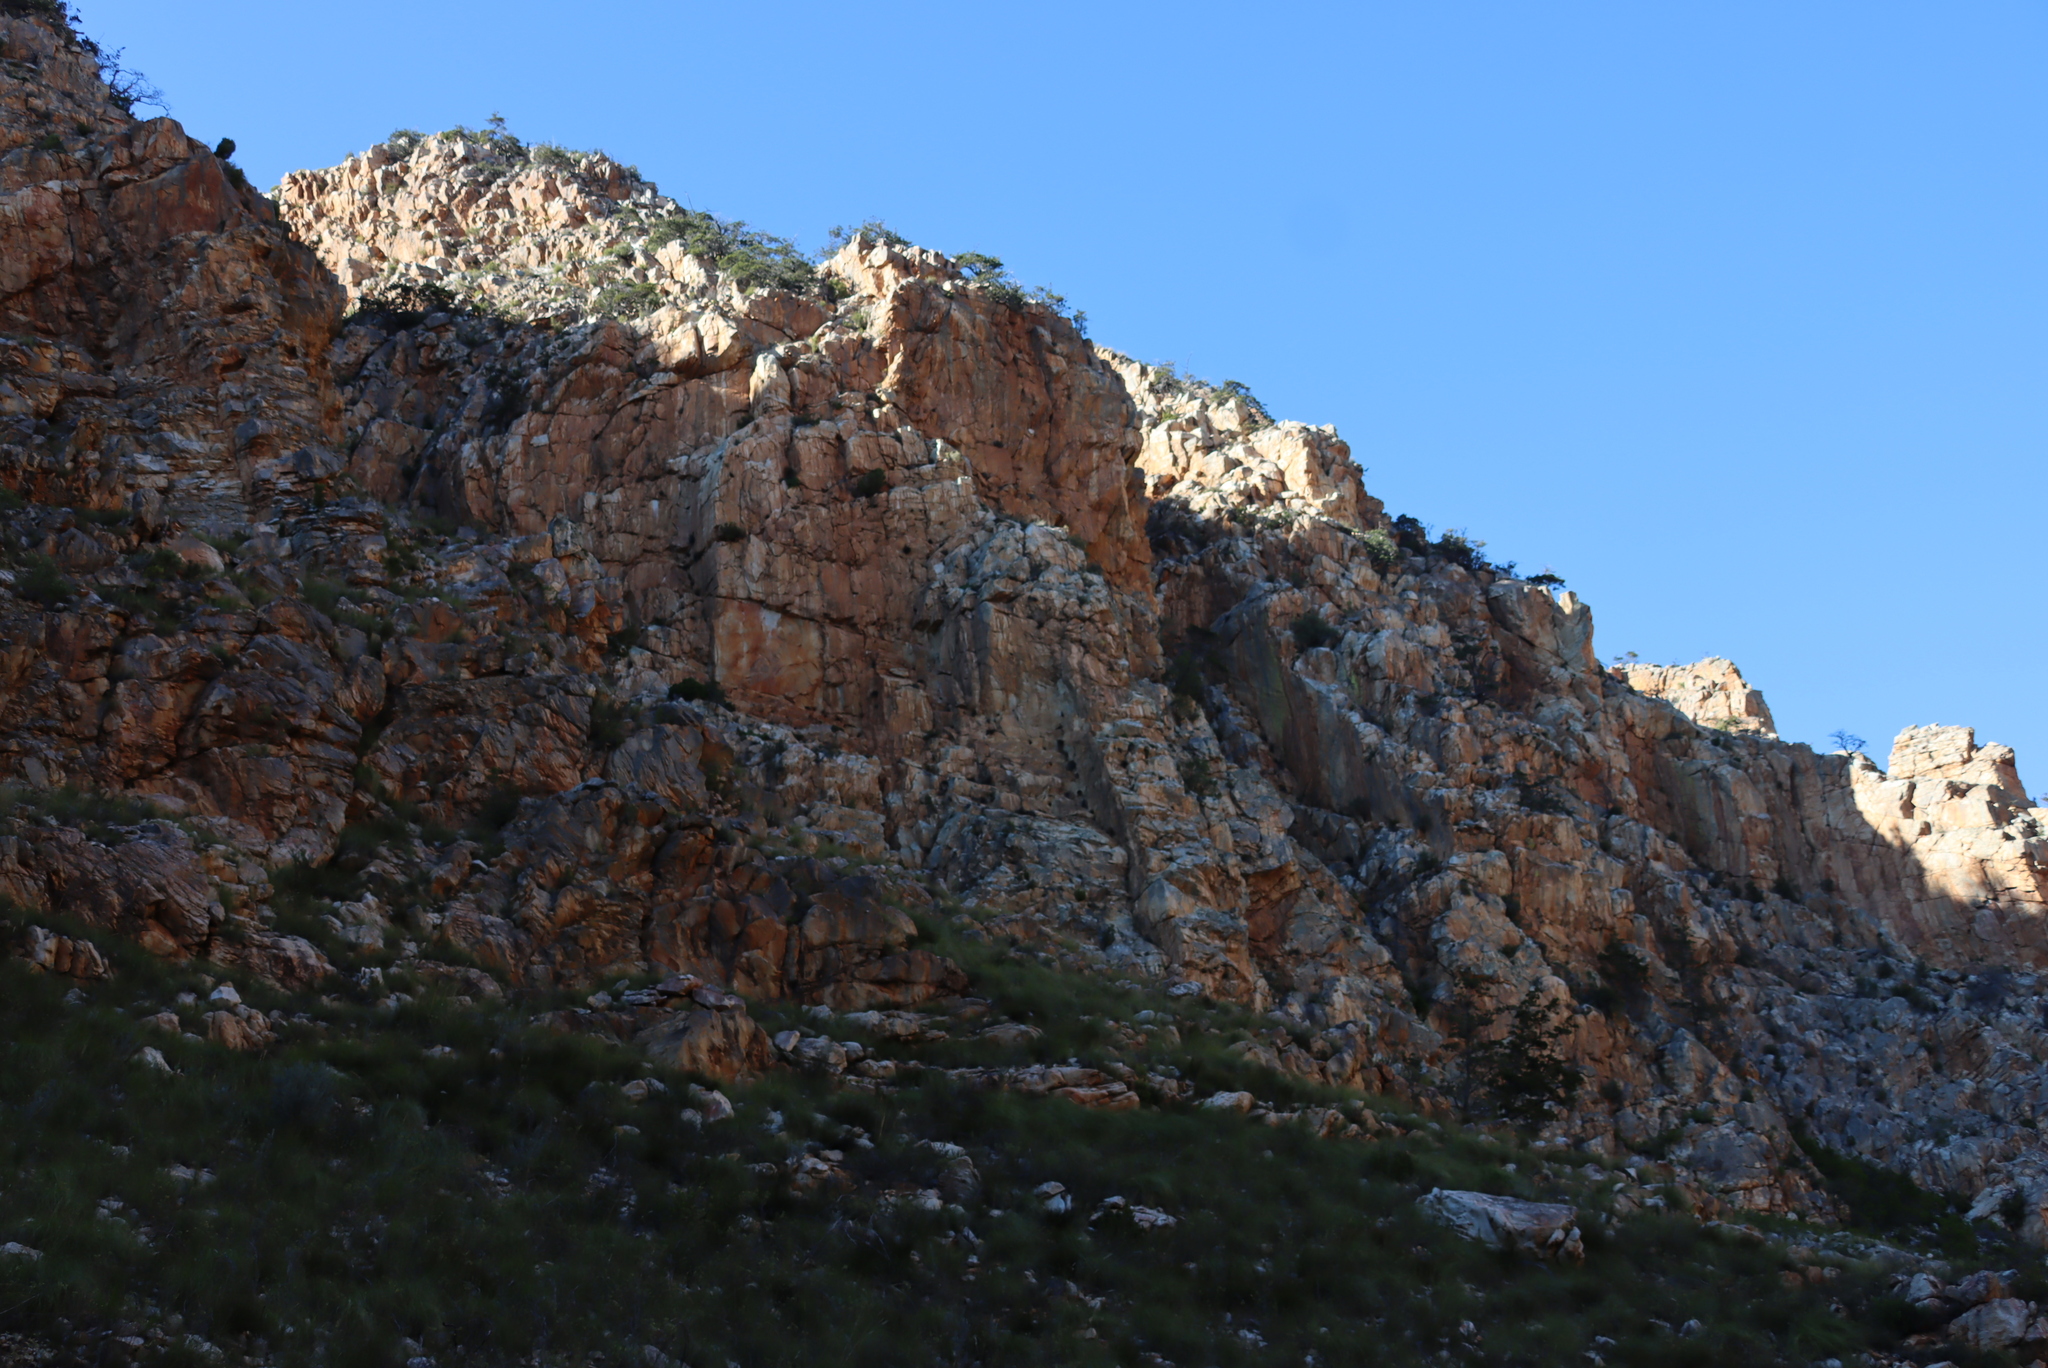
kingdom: Plantae
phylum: Tracheophyta
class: Pinopsida
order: Pinales
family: Cupressaceae
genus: Widdringtonia
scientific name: Widdringtonia schwarzii
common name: Baviaans cedar
